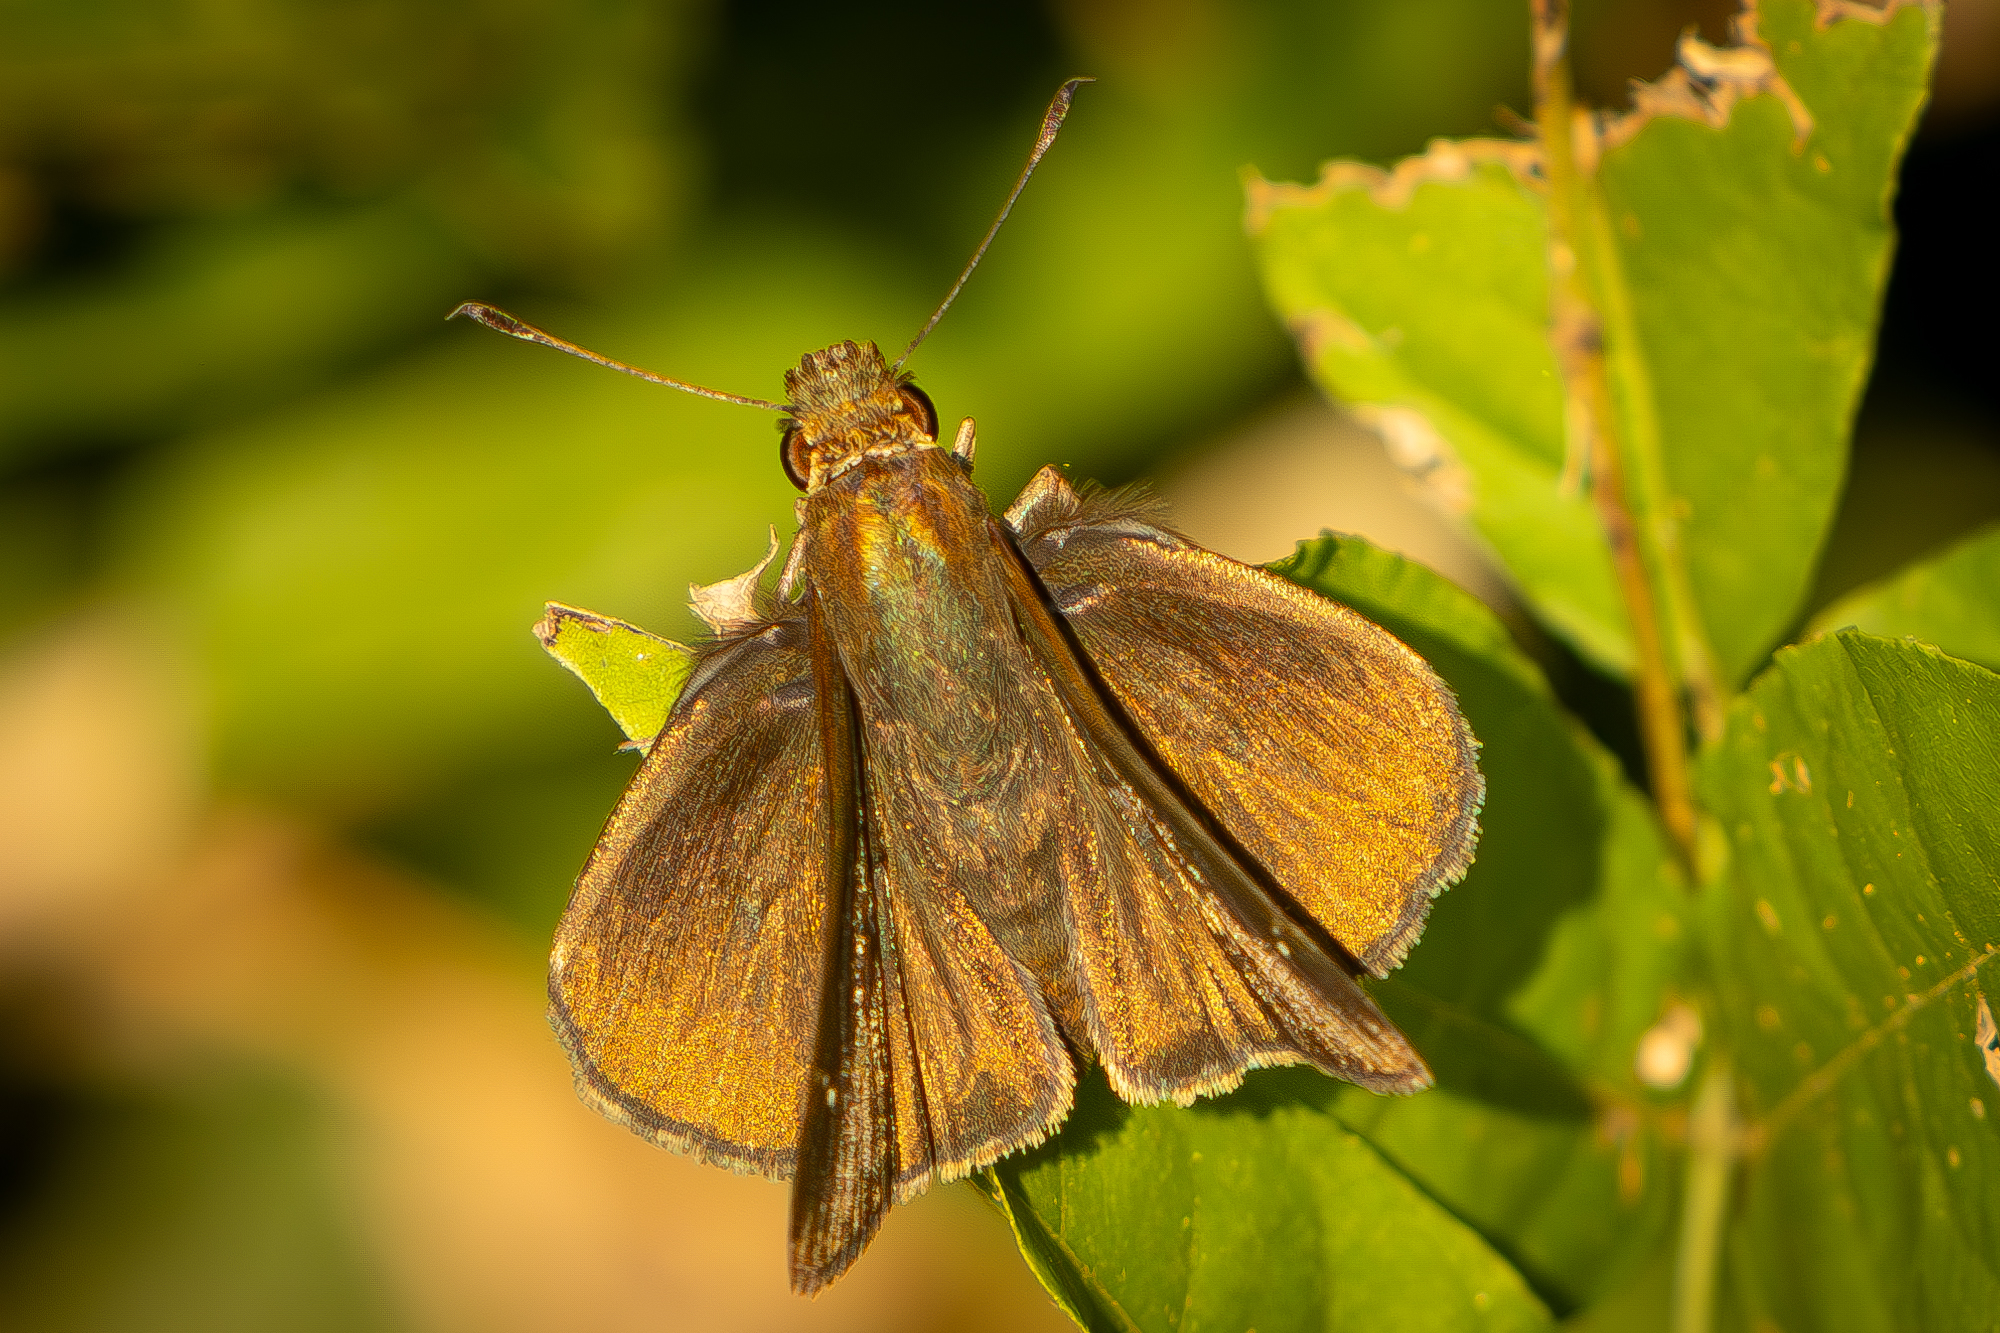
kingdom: Animalia
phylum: Arthropoda
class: Insecta
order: Lepidoptera
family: Hesperiidae
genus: Lerema
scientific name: Lerema accius
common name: Clouded skipper
